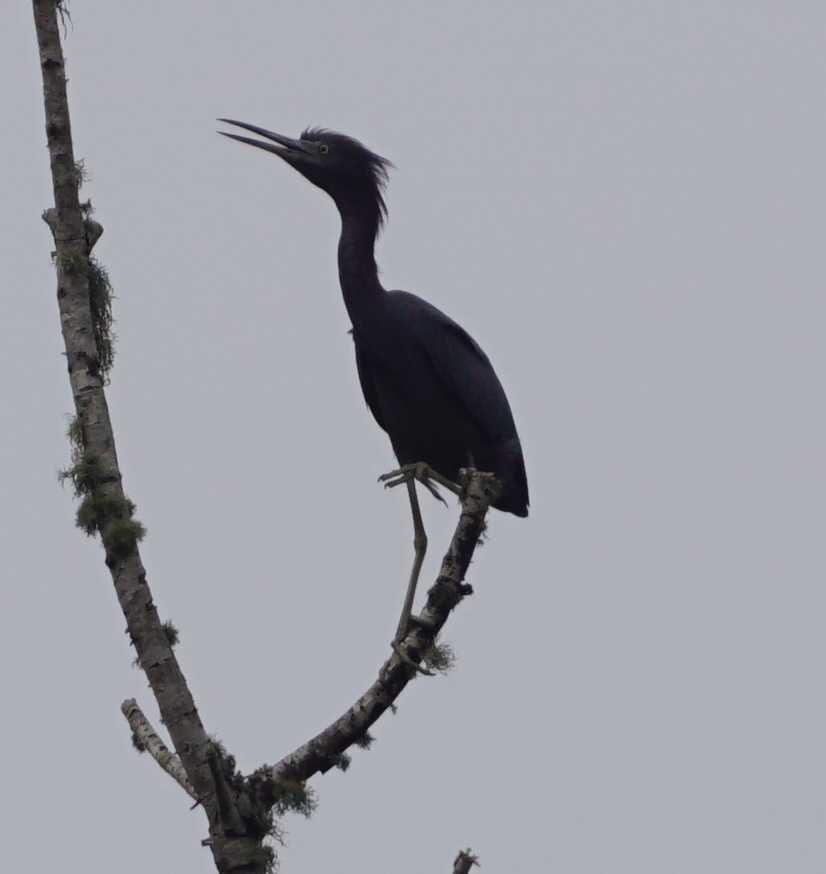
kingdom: Animalia
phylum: Chordata
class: Aves
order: Pelecaniformes
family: Ardeidae
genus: Egretta
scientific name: Egretta caerulea
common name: Little blue heron
